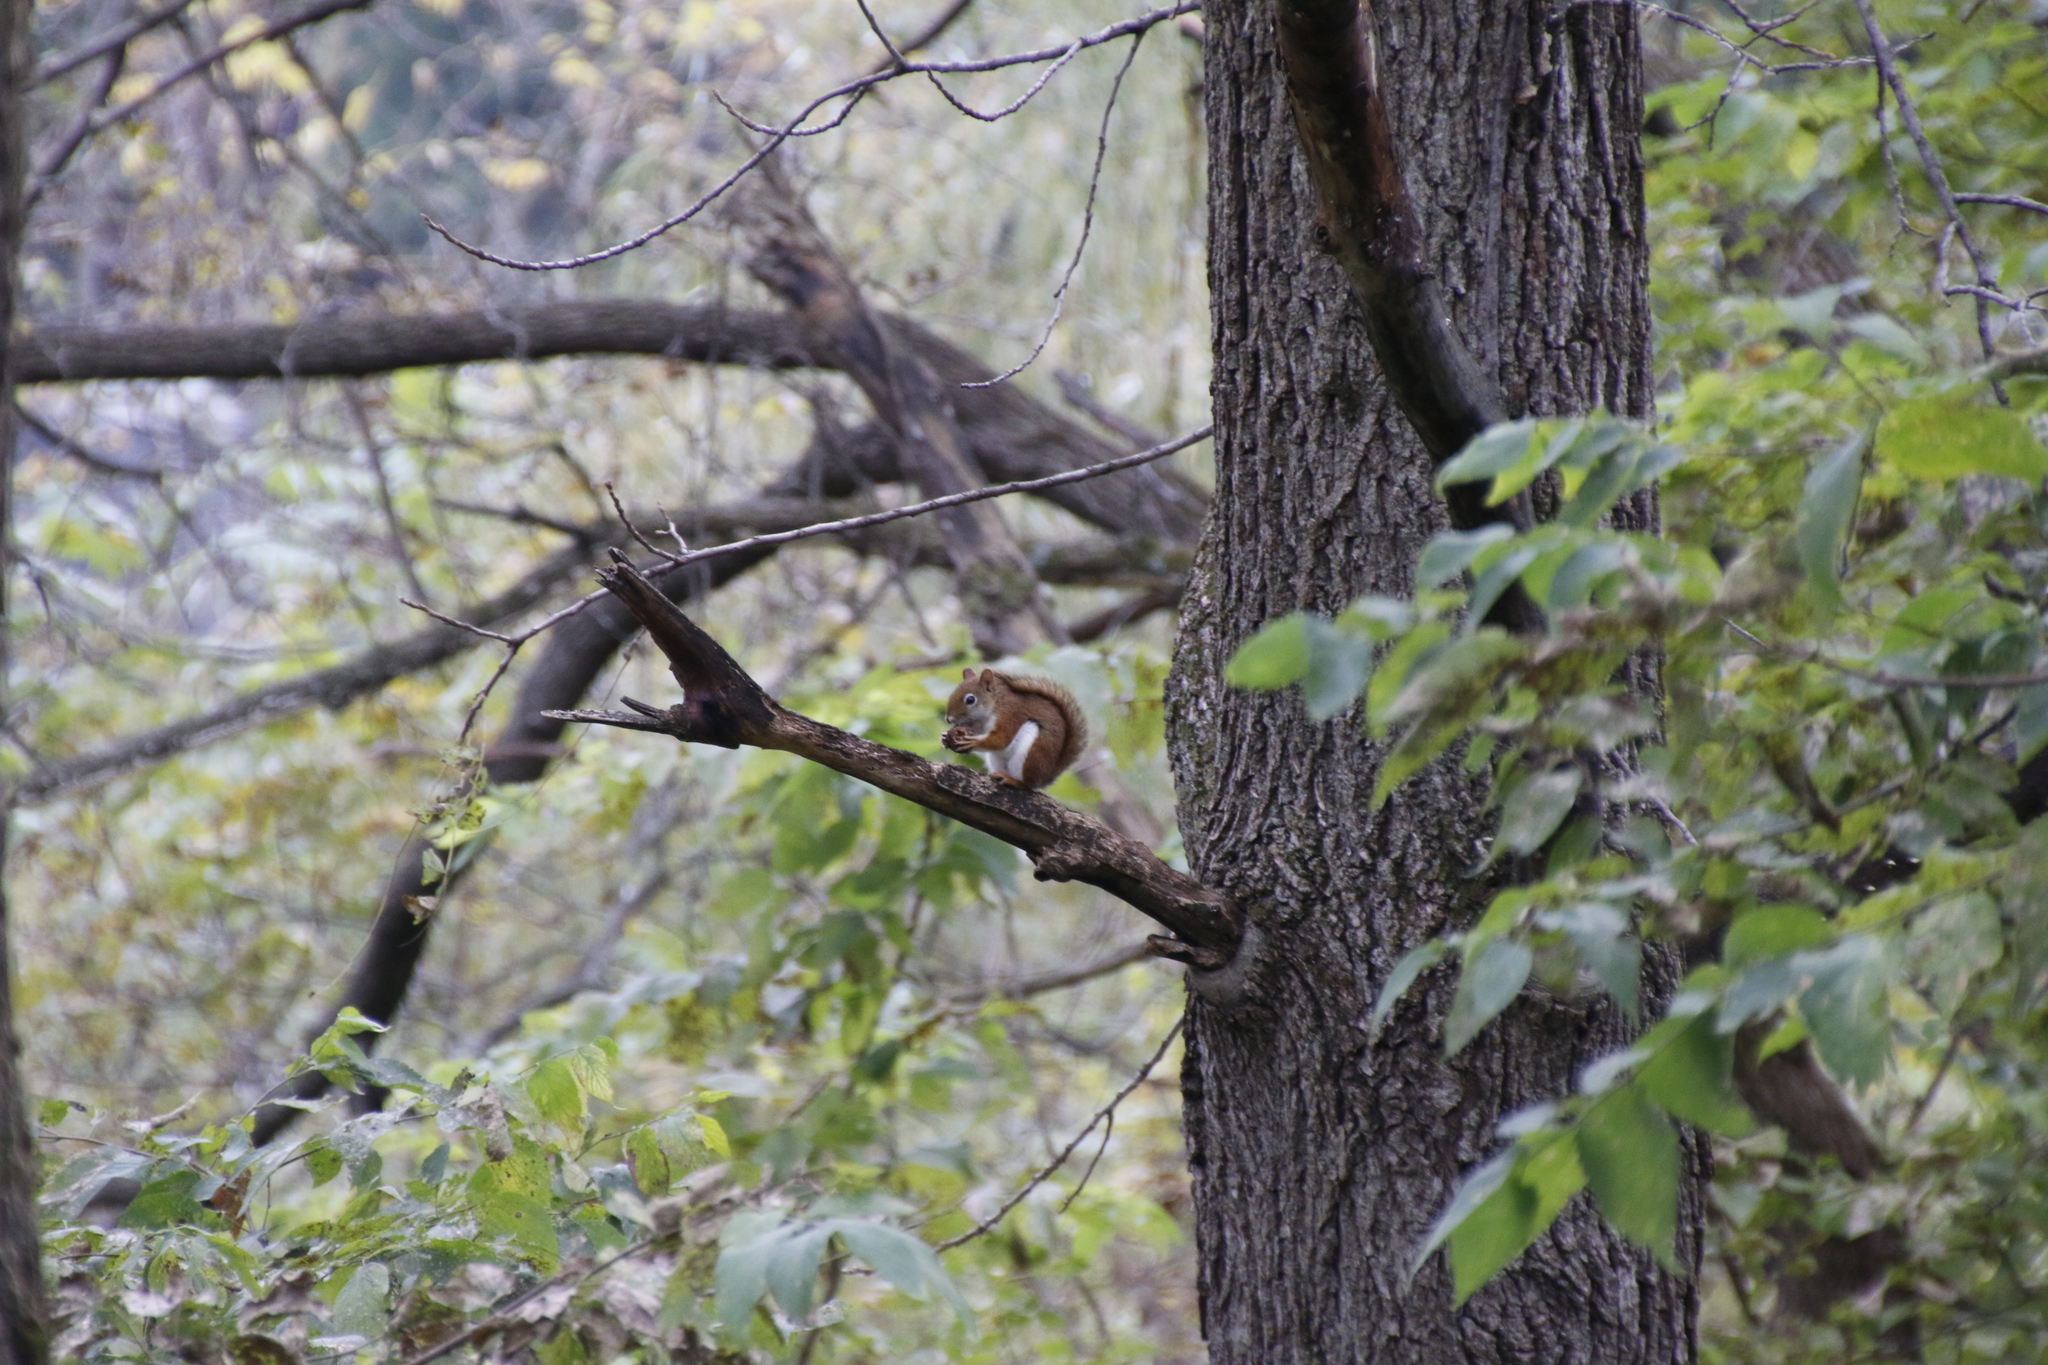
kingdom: Animalia
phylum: Chordata
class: Mammalia
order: Rodentia
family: Sciuridae
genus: Tamiasciurus
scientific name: Tamiasciurus hudsonicus
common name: Red squirrel
